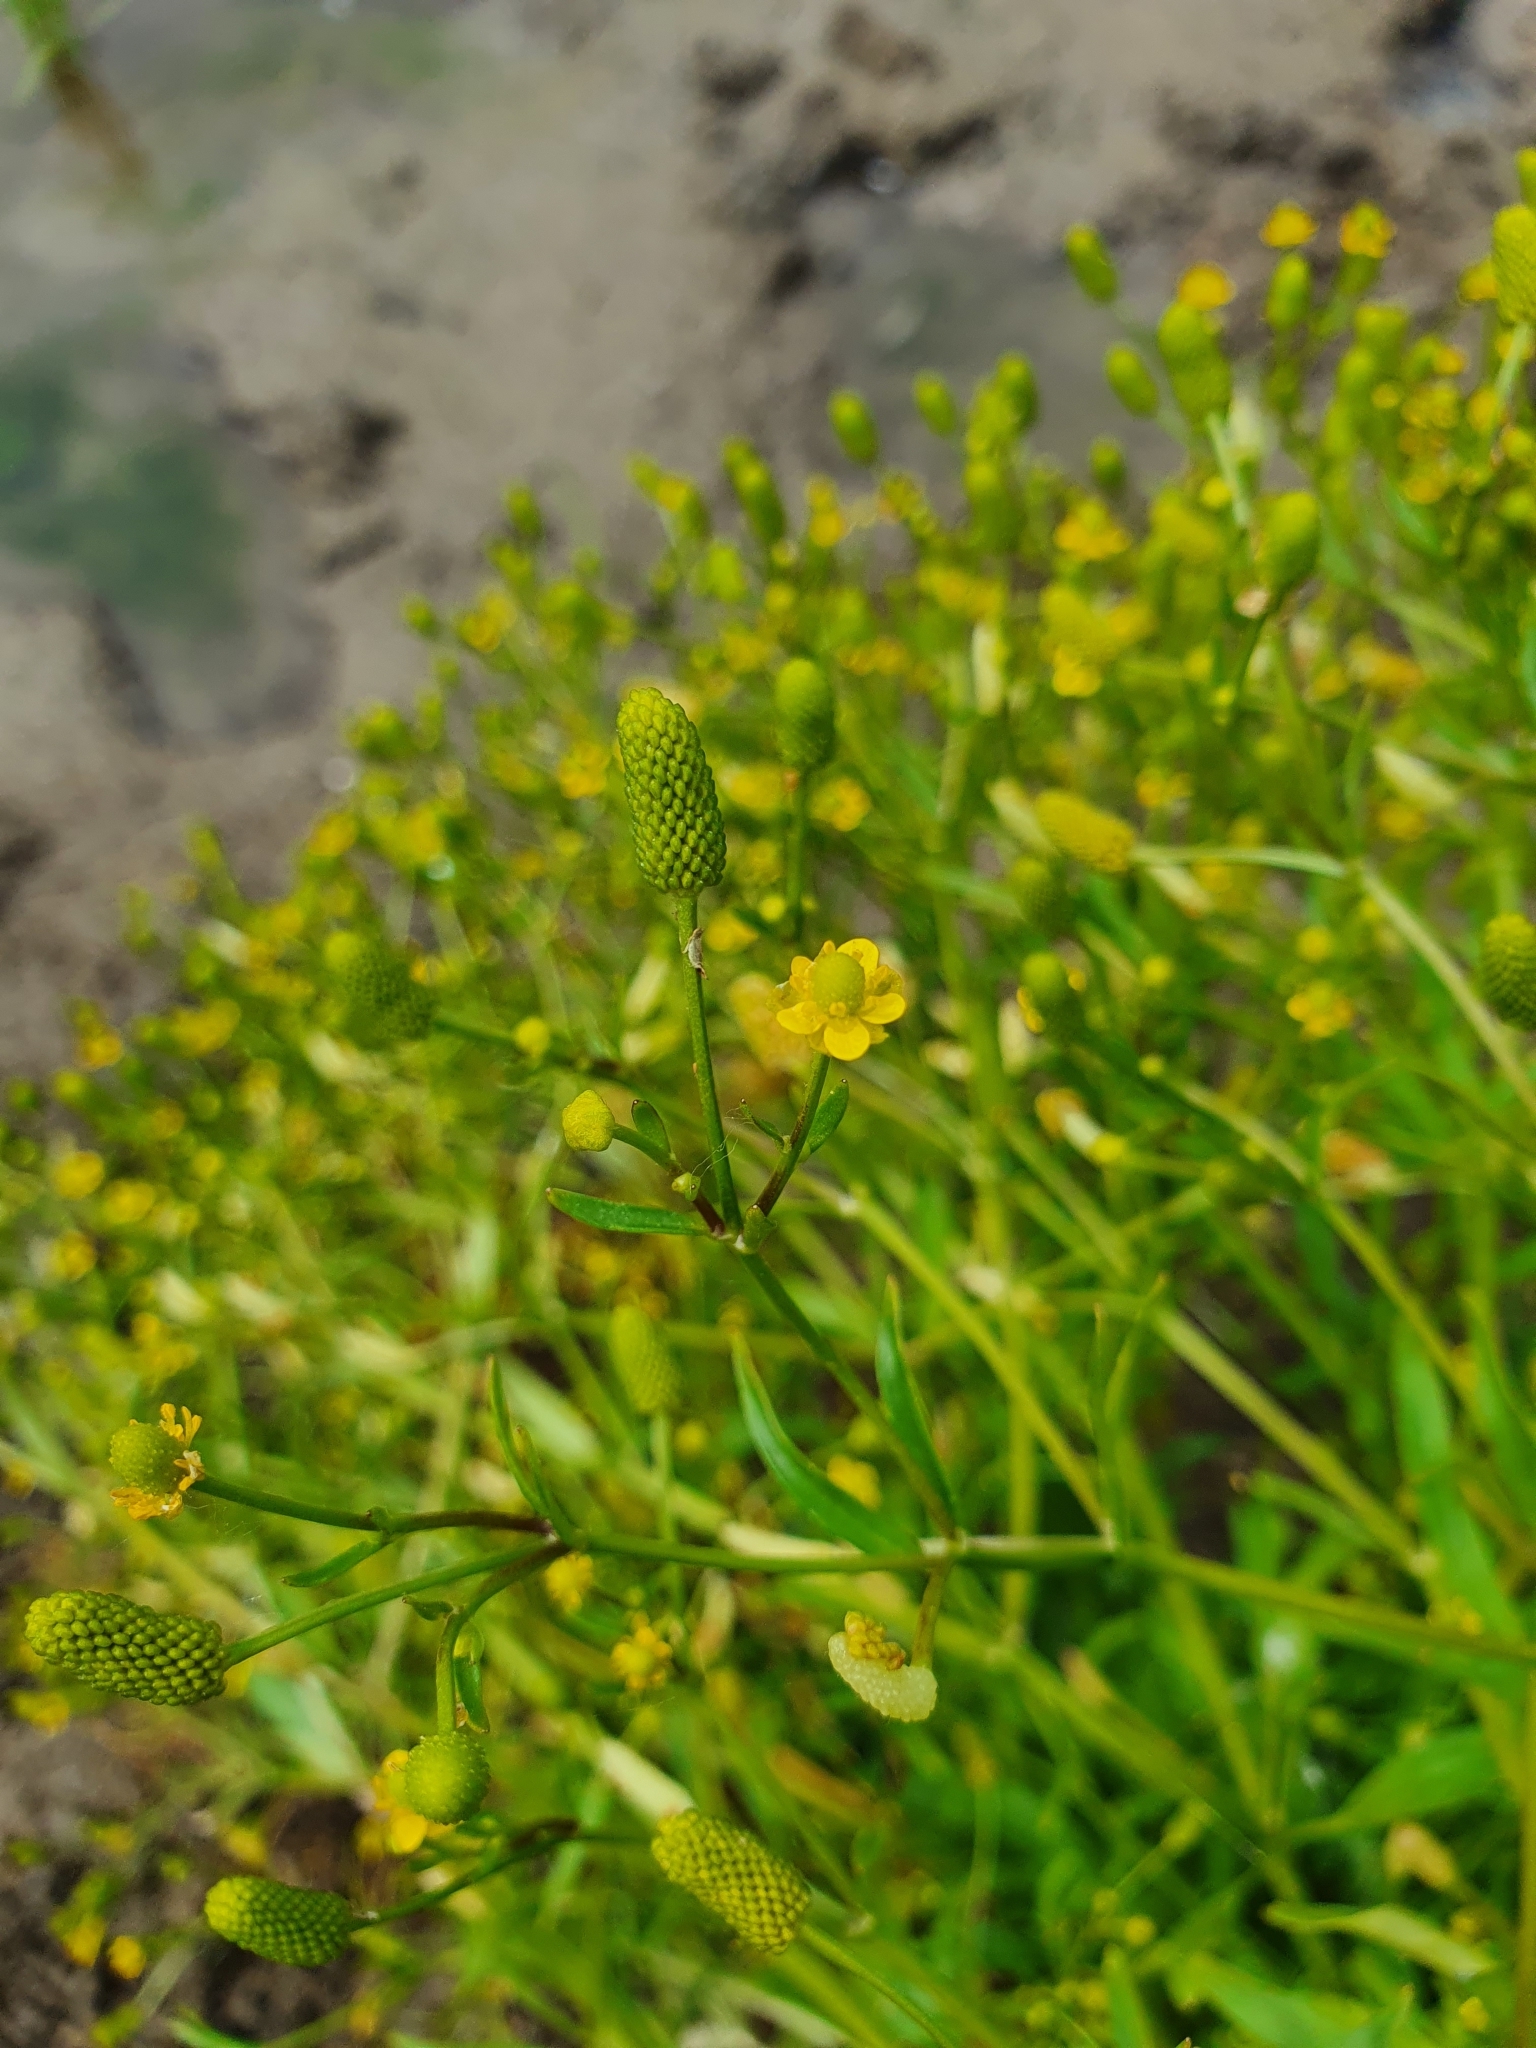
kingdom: Plantae
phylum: Tracheophyta
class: Magnoliopsida
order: Ranunculales
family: Ranunculaceae
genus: Ranunculus
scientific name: Ranunculus sceleratus
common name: Celery-leaved buttercup
